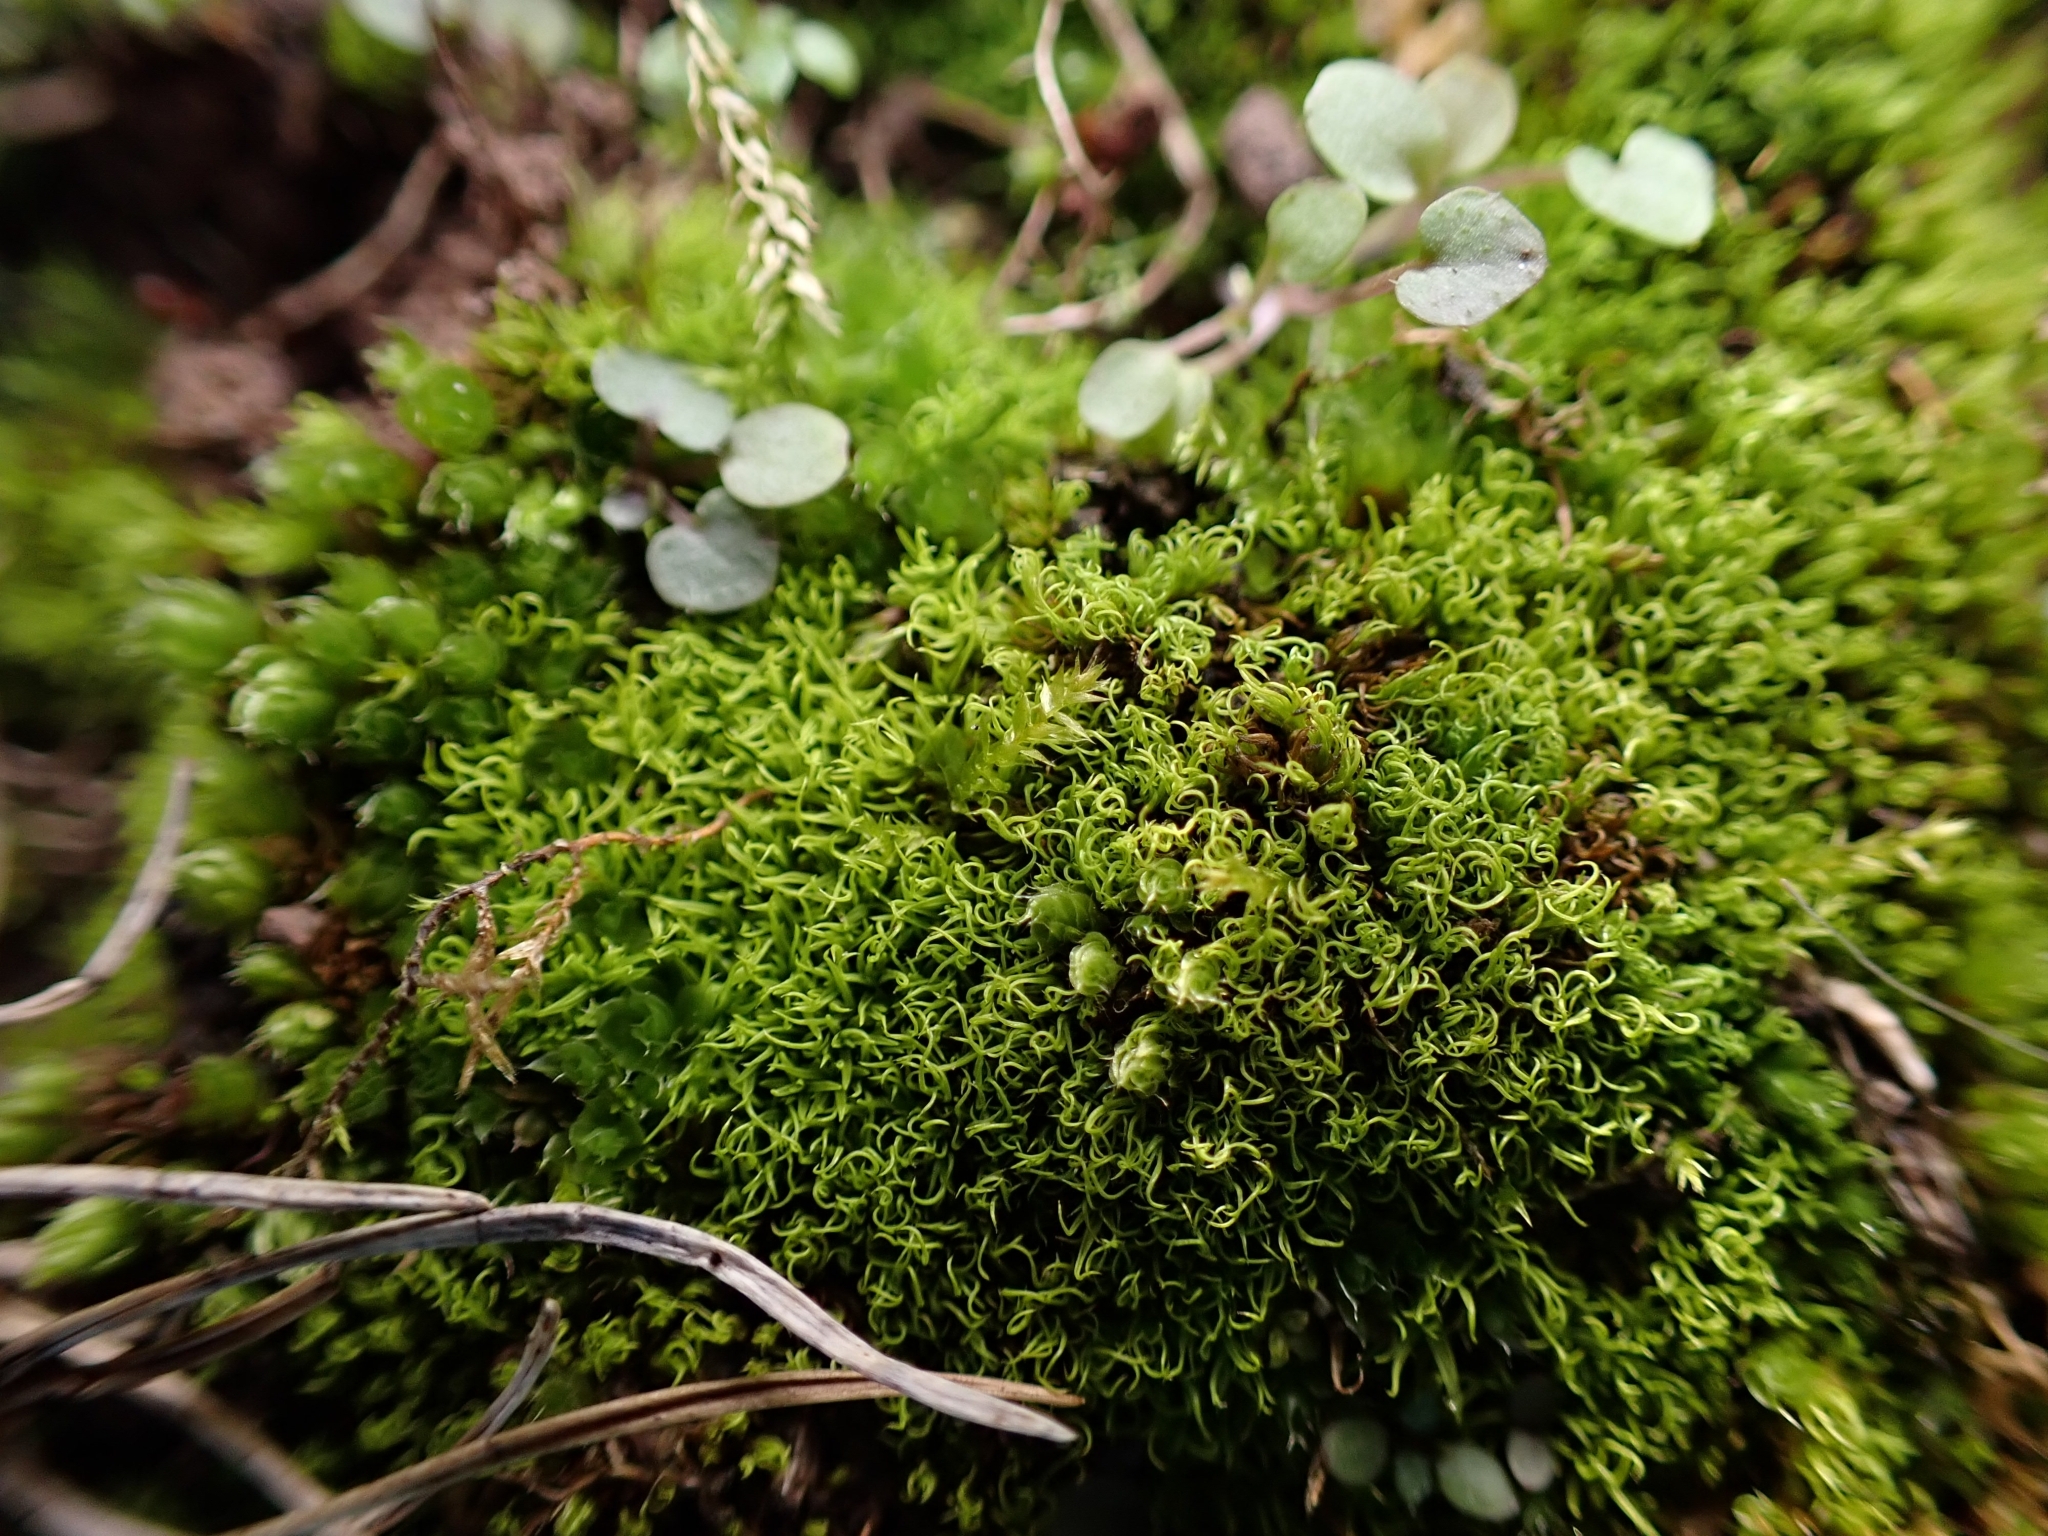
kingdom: Plantae
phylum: Bryophyta
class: Bryopsida
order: Pottiales
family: Pottiaceae
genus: Trichostomum
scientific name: Trichostomum brachydontium
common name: Variable crisp-moss
